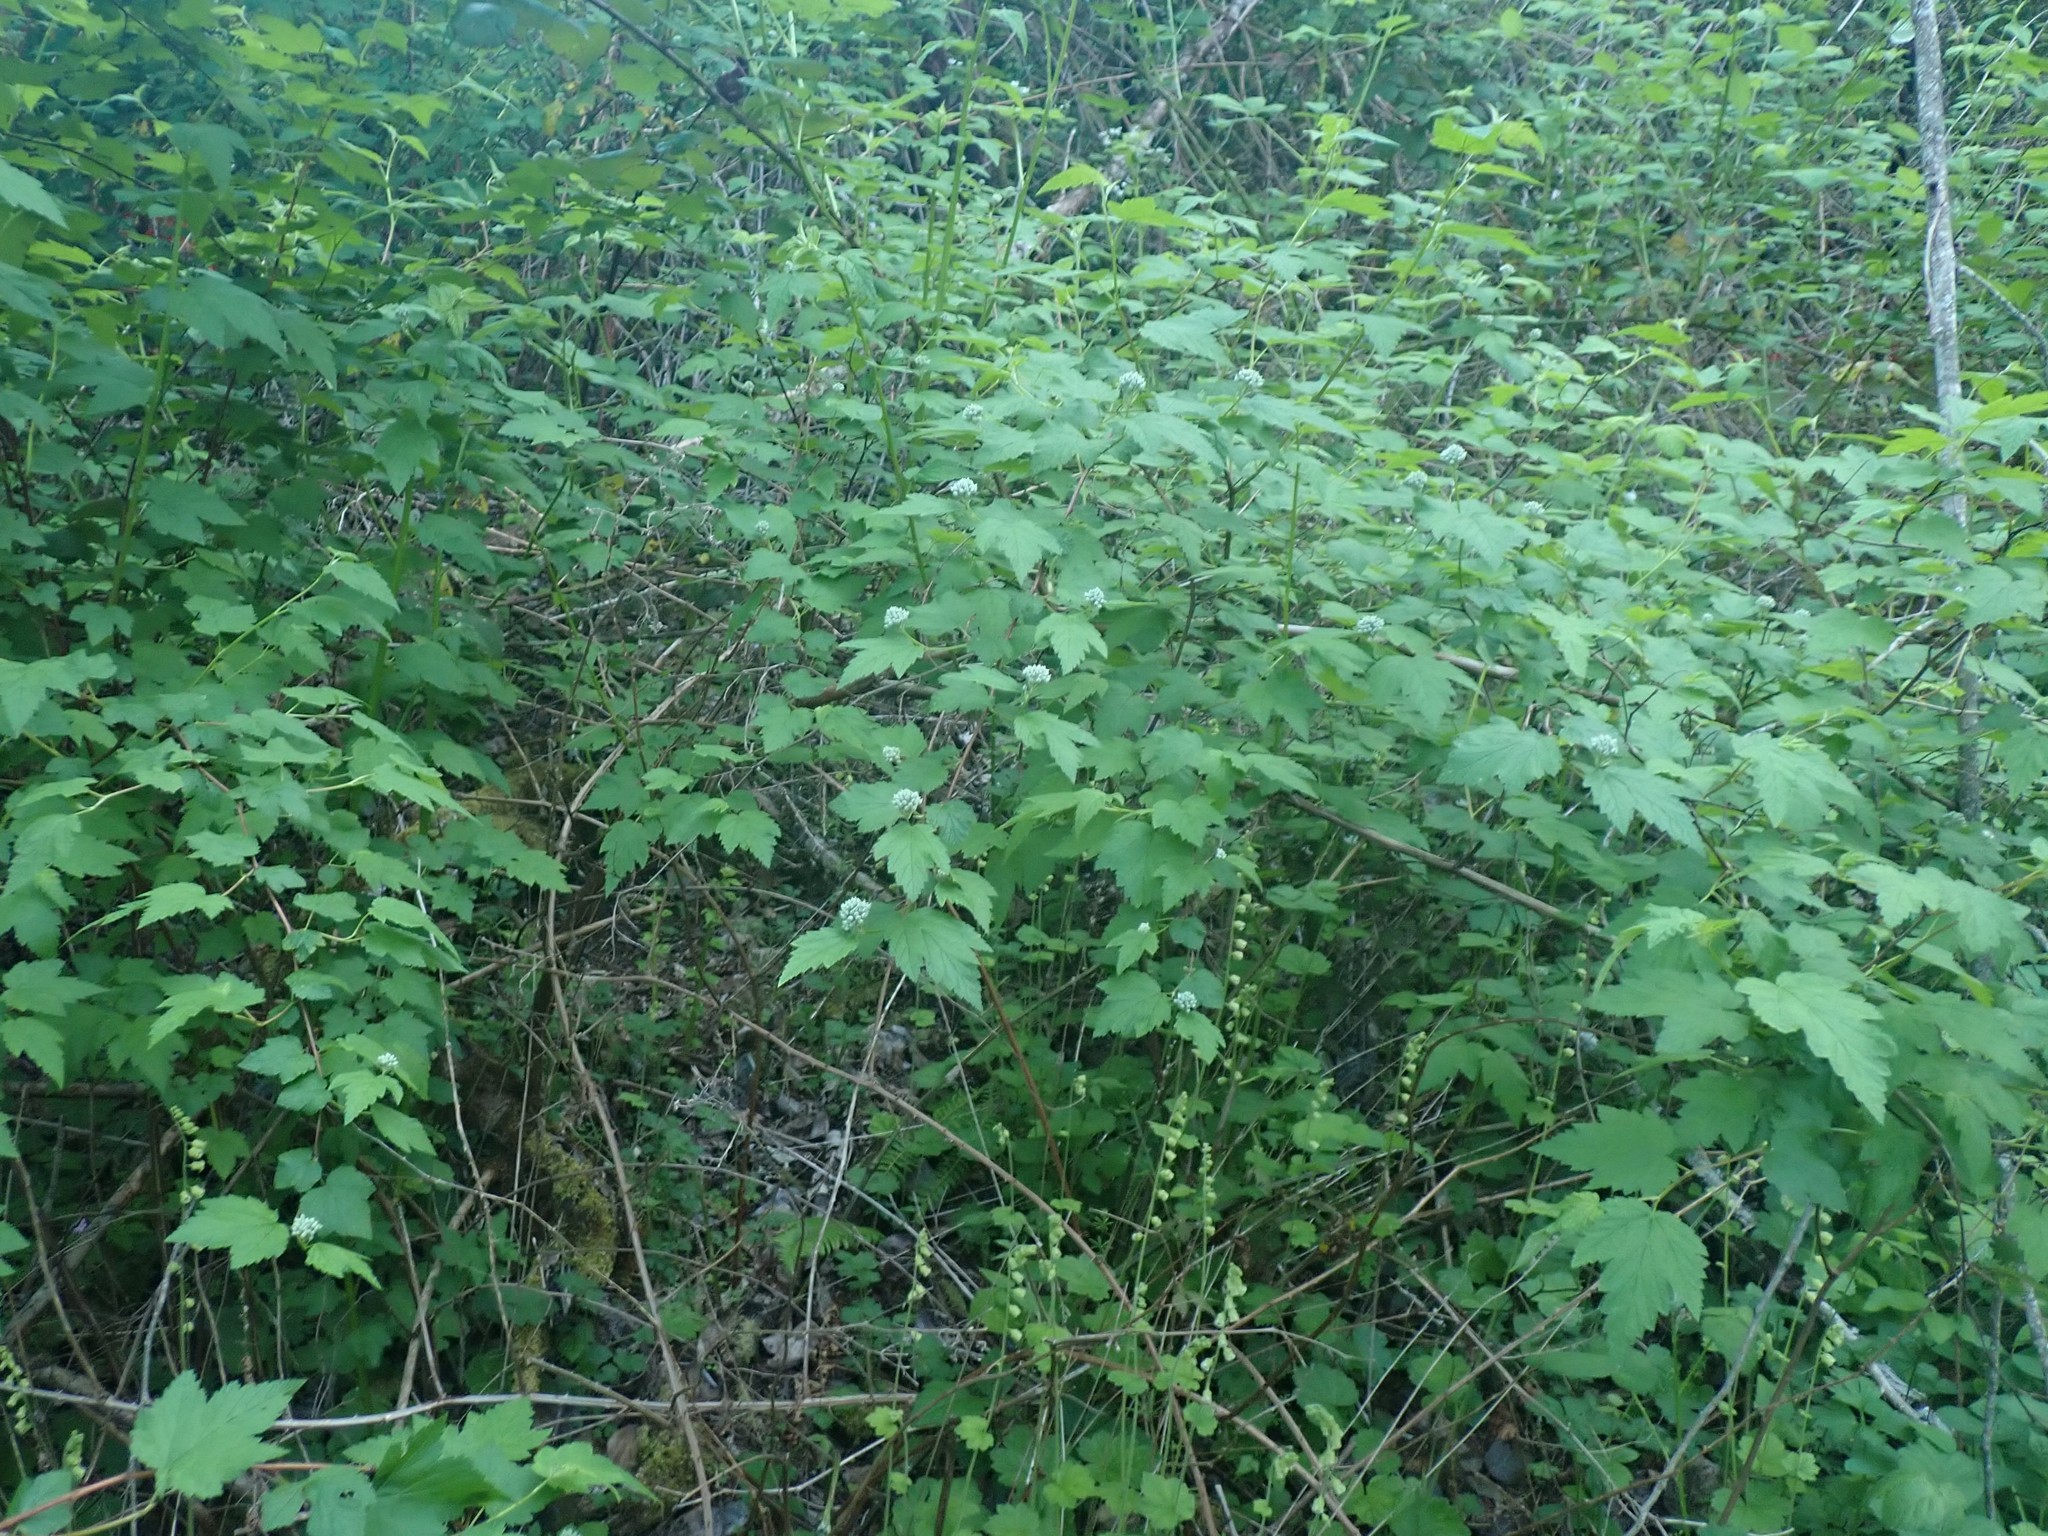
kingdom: Plantae
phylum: Tracheophyta
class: Magnoliopsida
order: Rosales
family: Rosaceae
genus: Physocarpus
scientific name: Physocarpus capitatus
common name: Pacific ninebark
